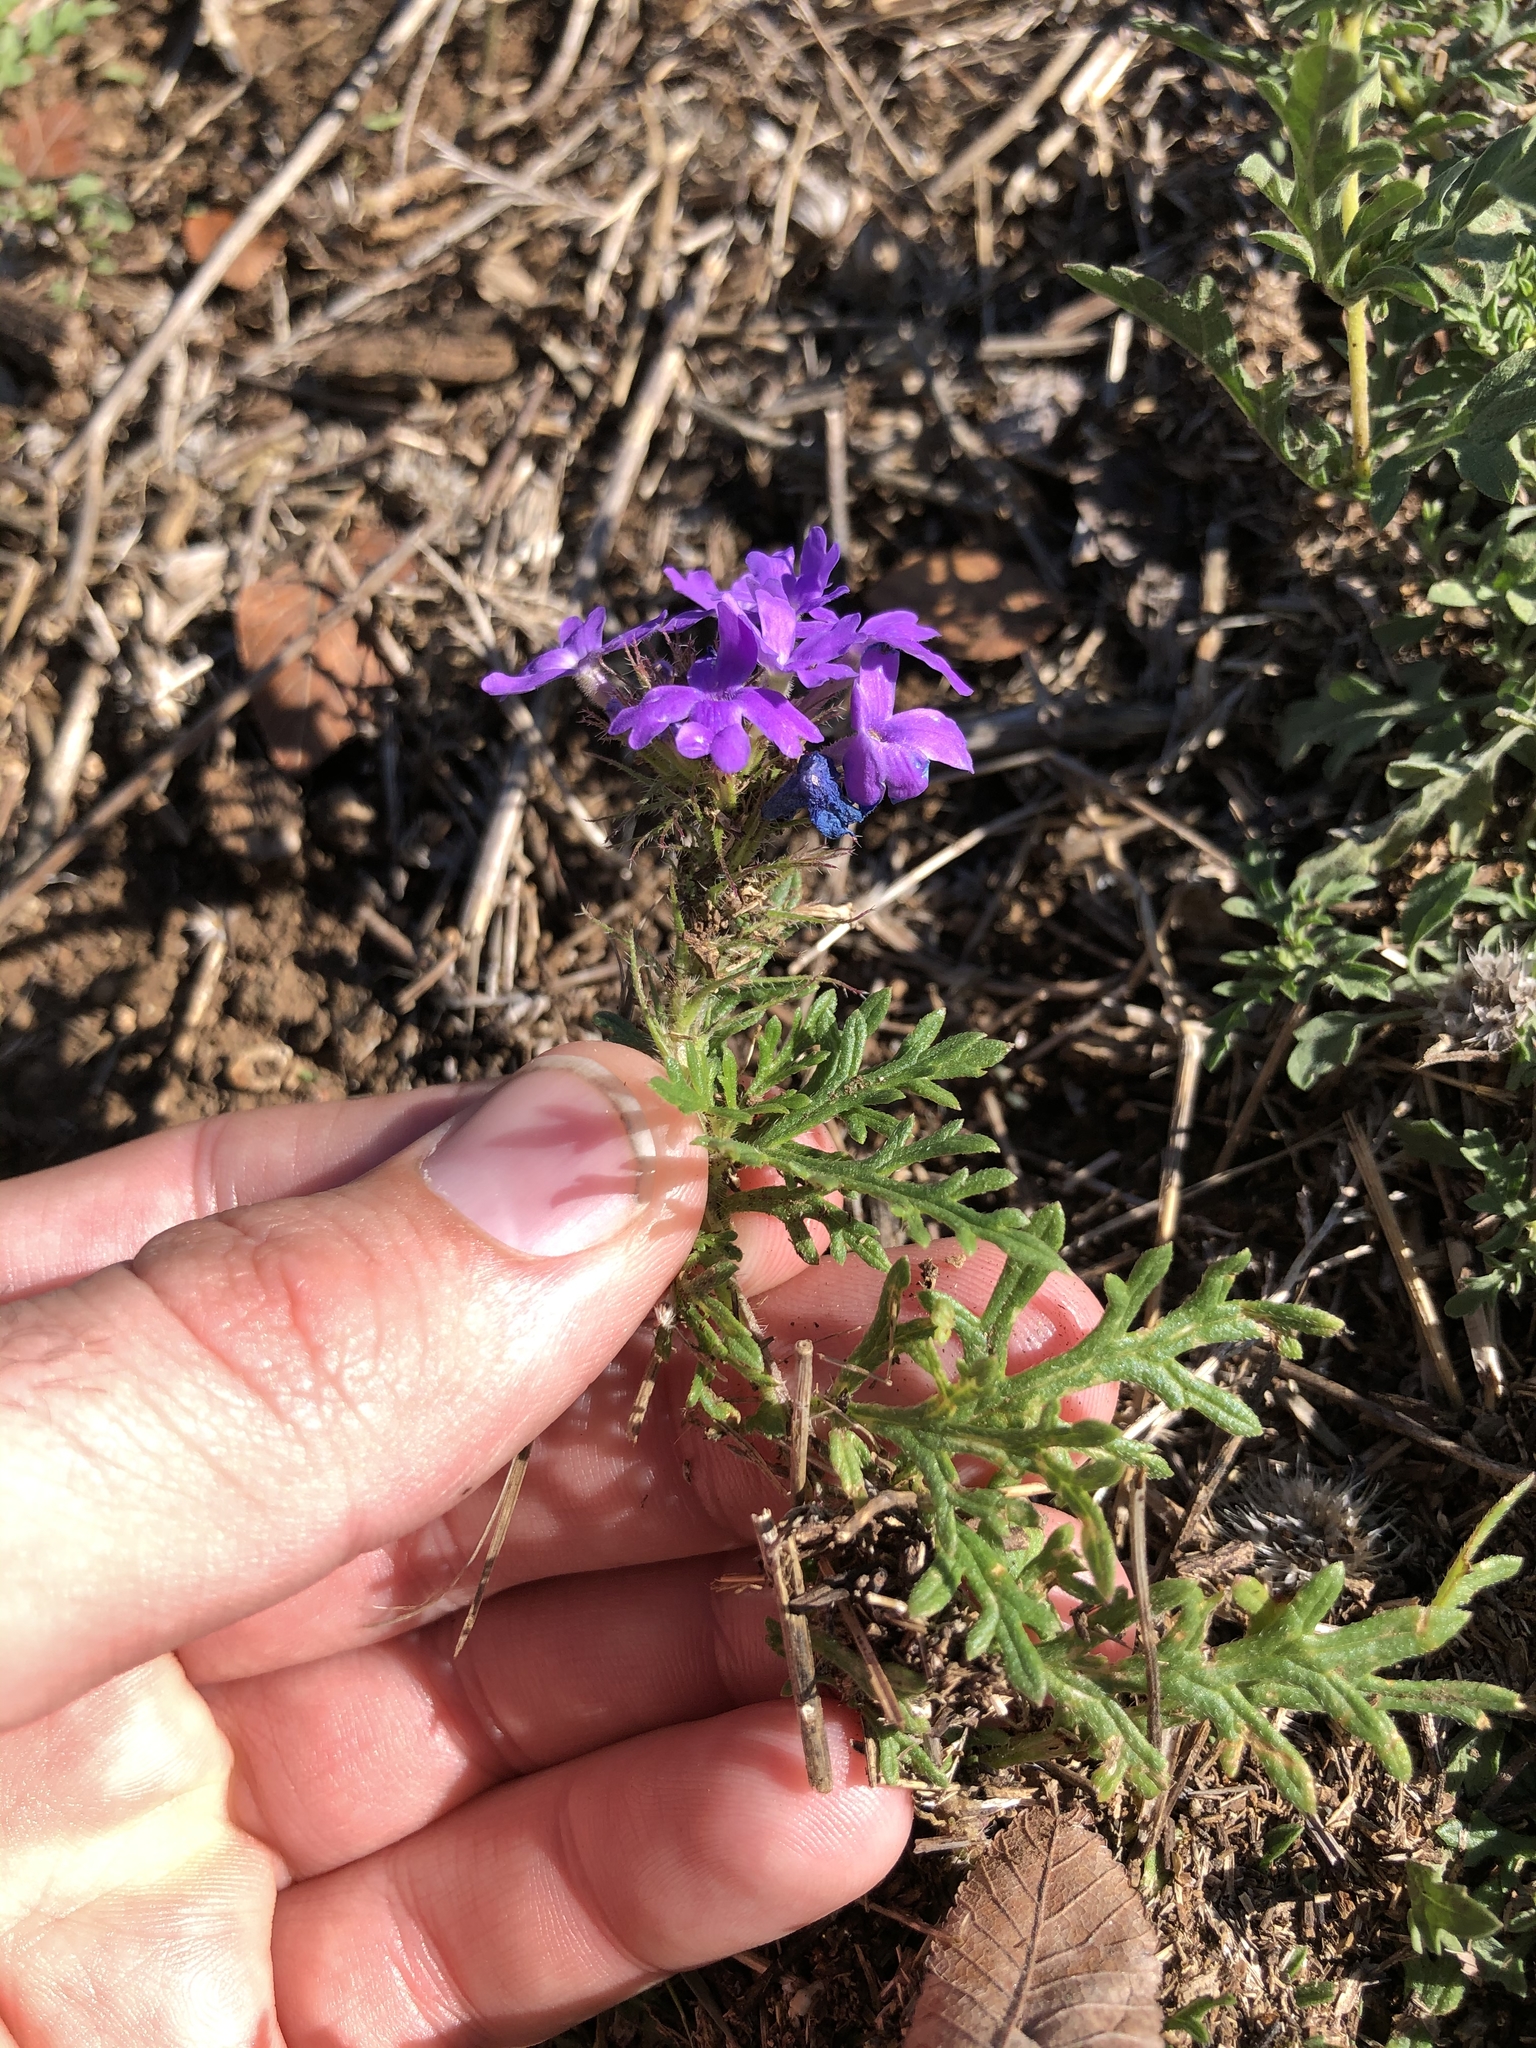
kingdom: Plantae
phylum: Tracheophyta
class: Magnoliopsida
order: Lamiales
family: Verbenaceae
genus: Verbena
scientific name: Verbena bipinnatifida
